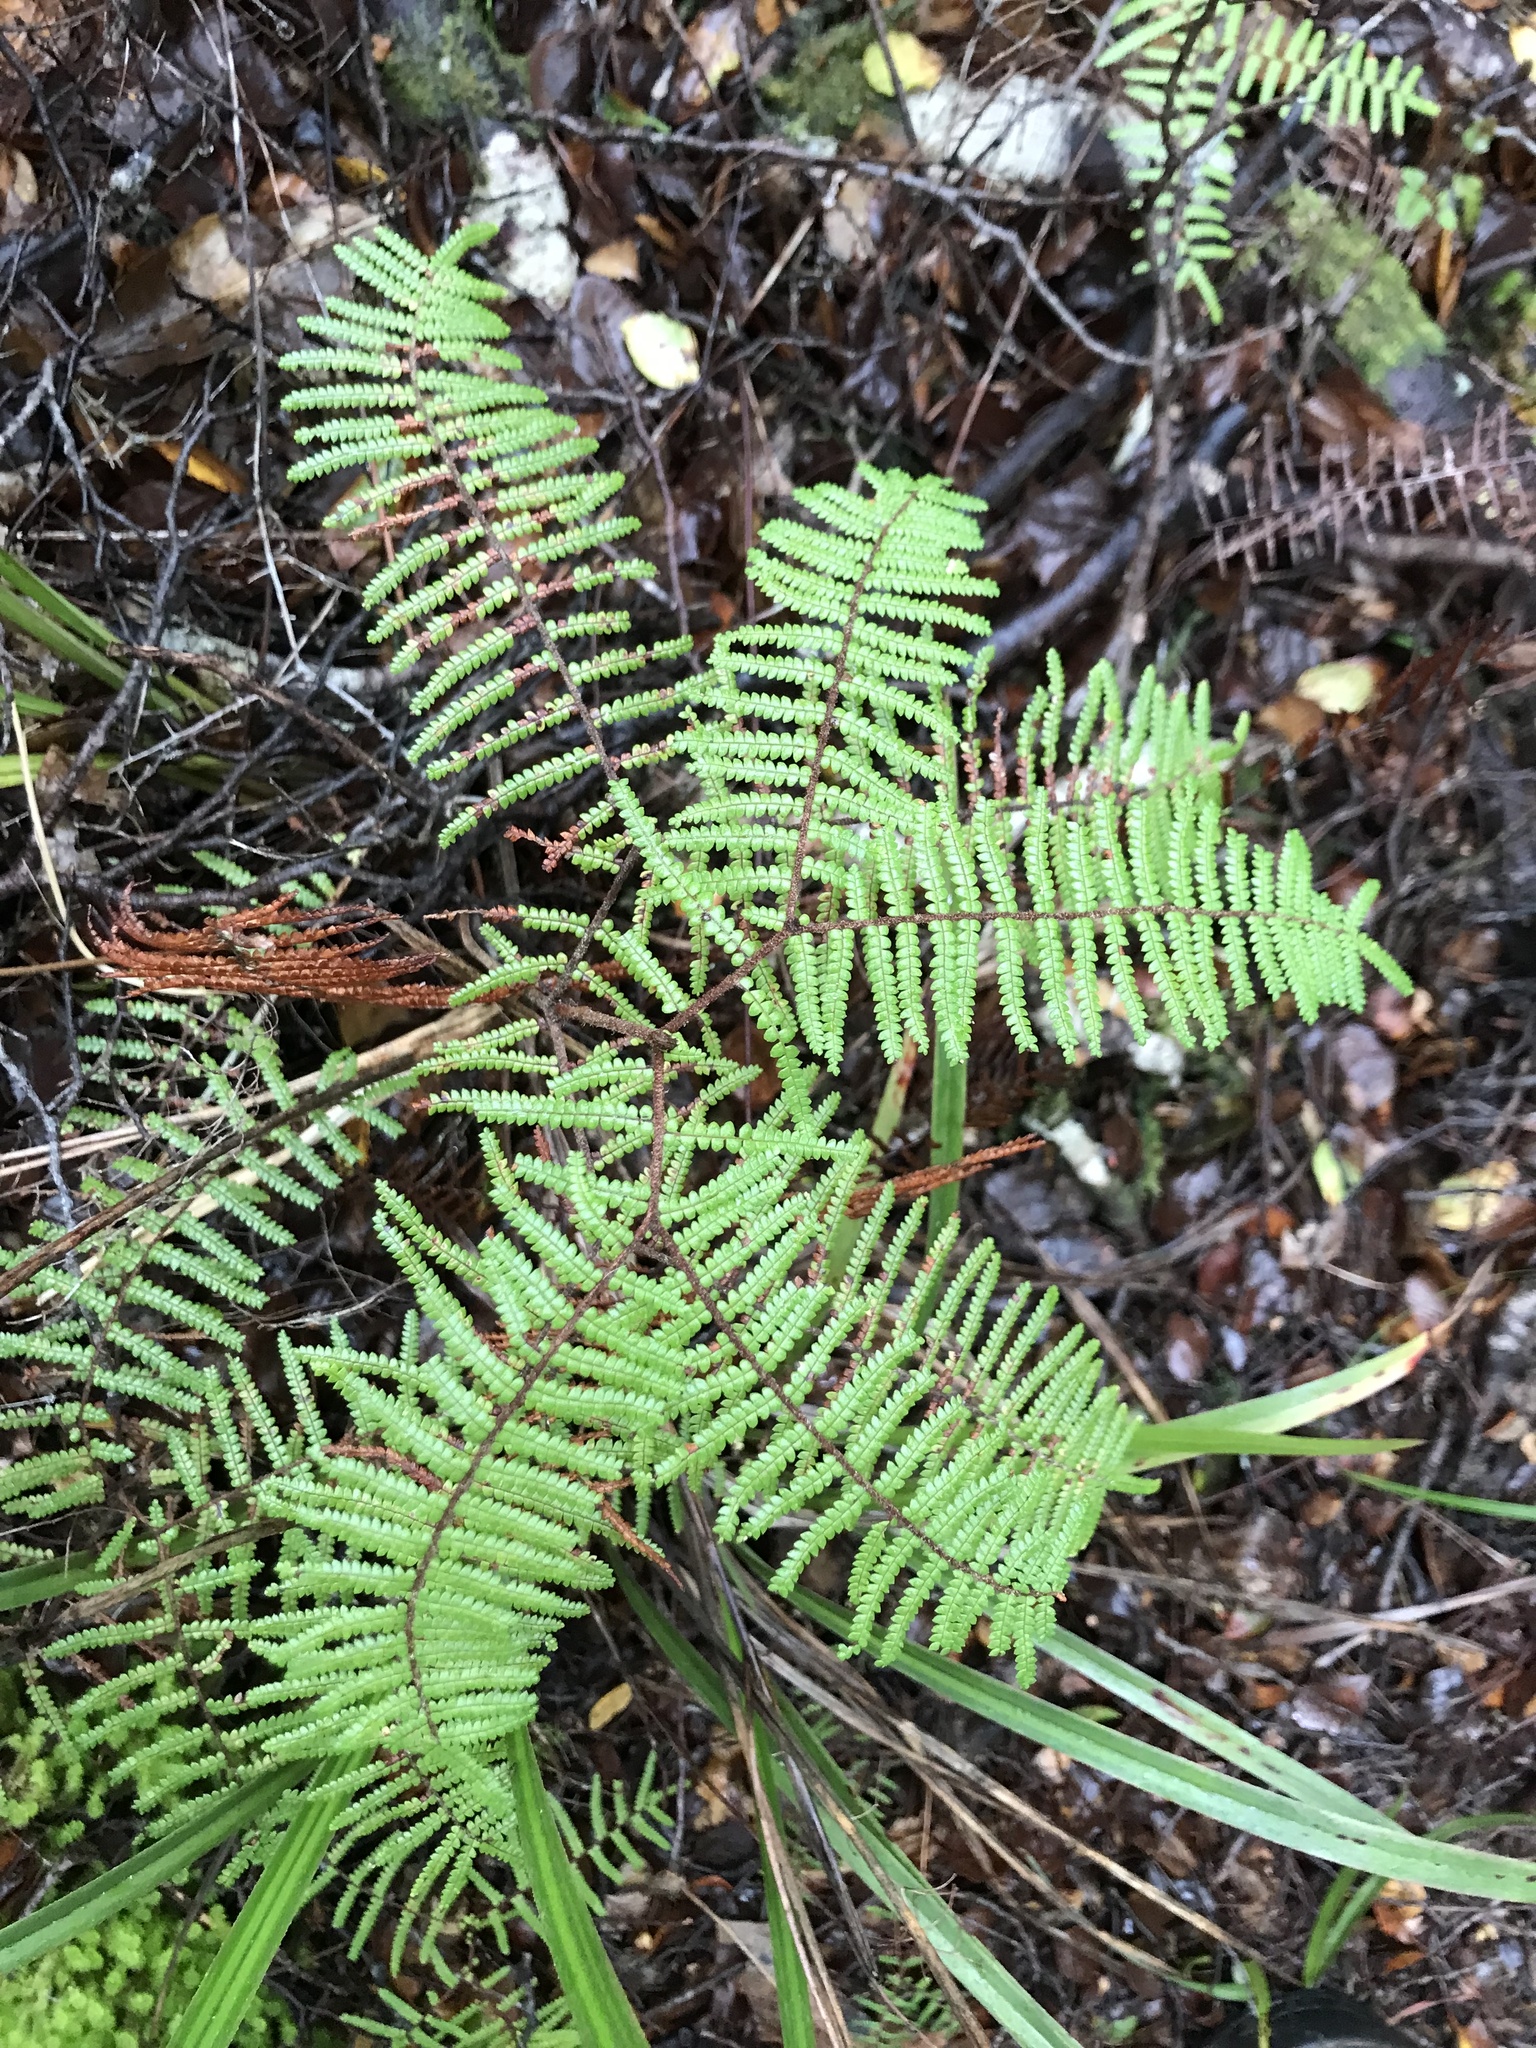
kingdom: Plantae
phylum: Tracheophyta
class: Polypodiopsida
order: Gleicheniales
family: Gleicheniaceae
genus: Gleichenia
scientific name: Gleichenia microphylla
